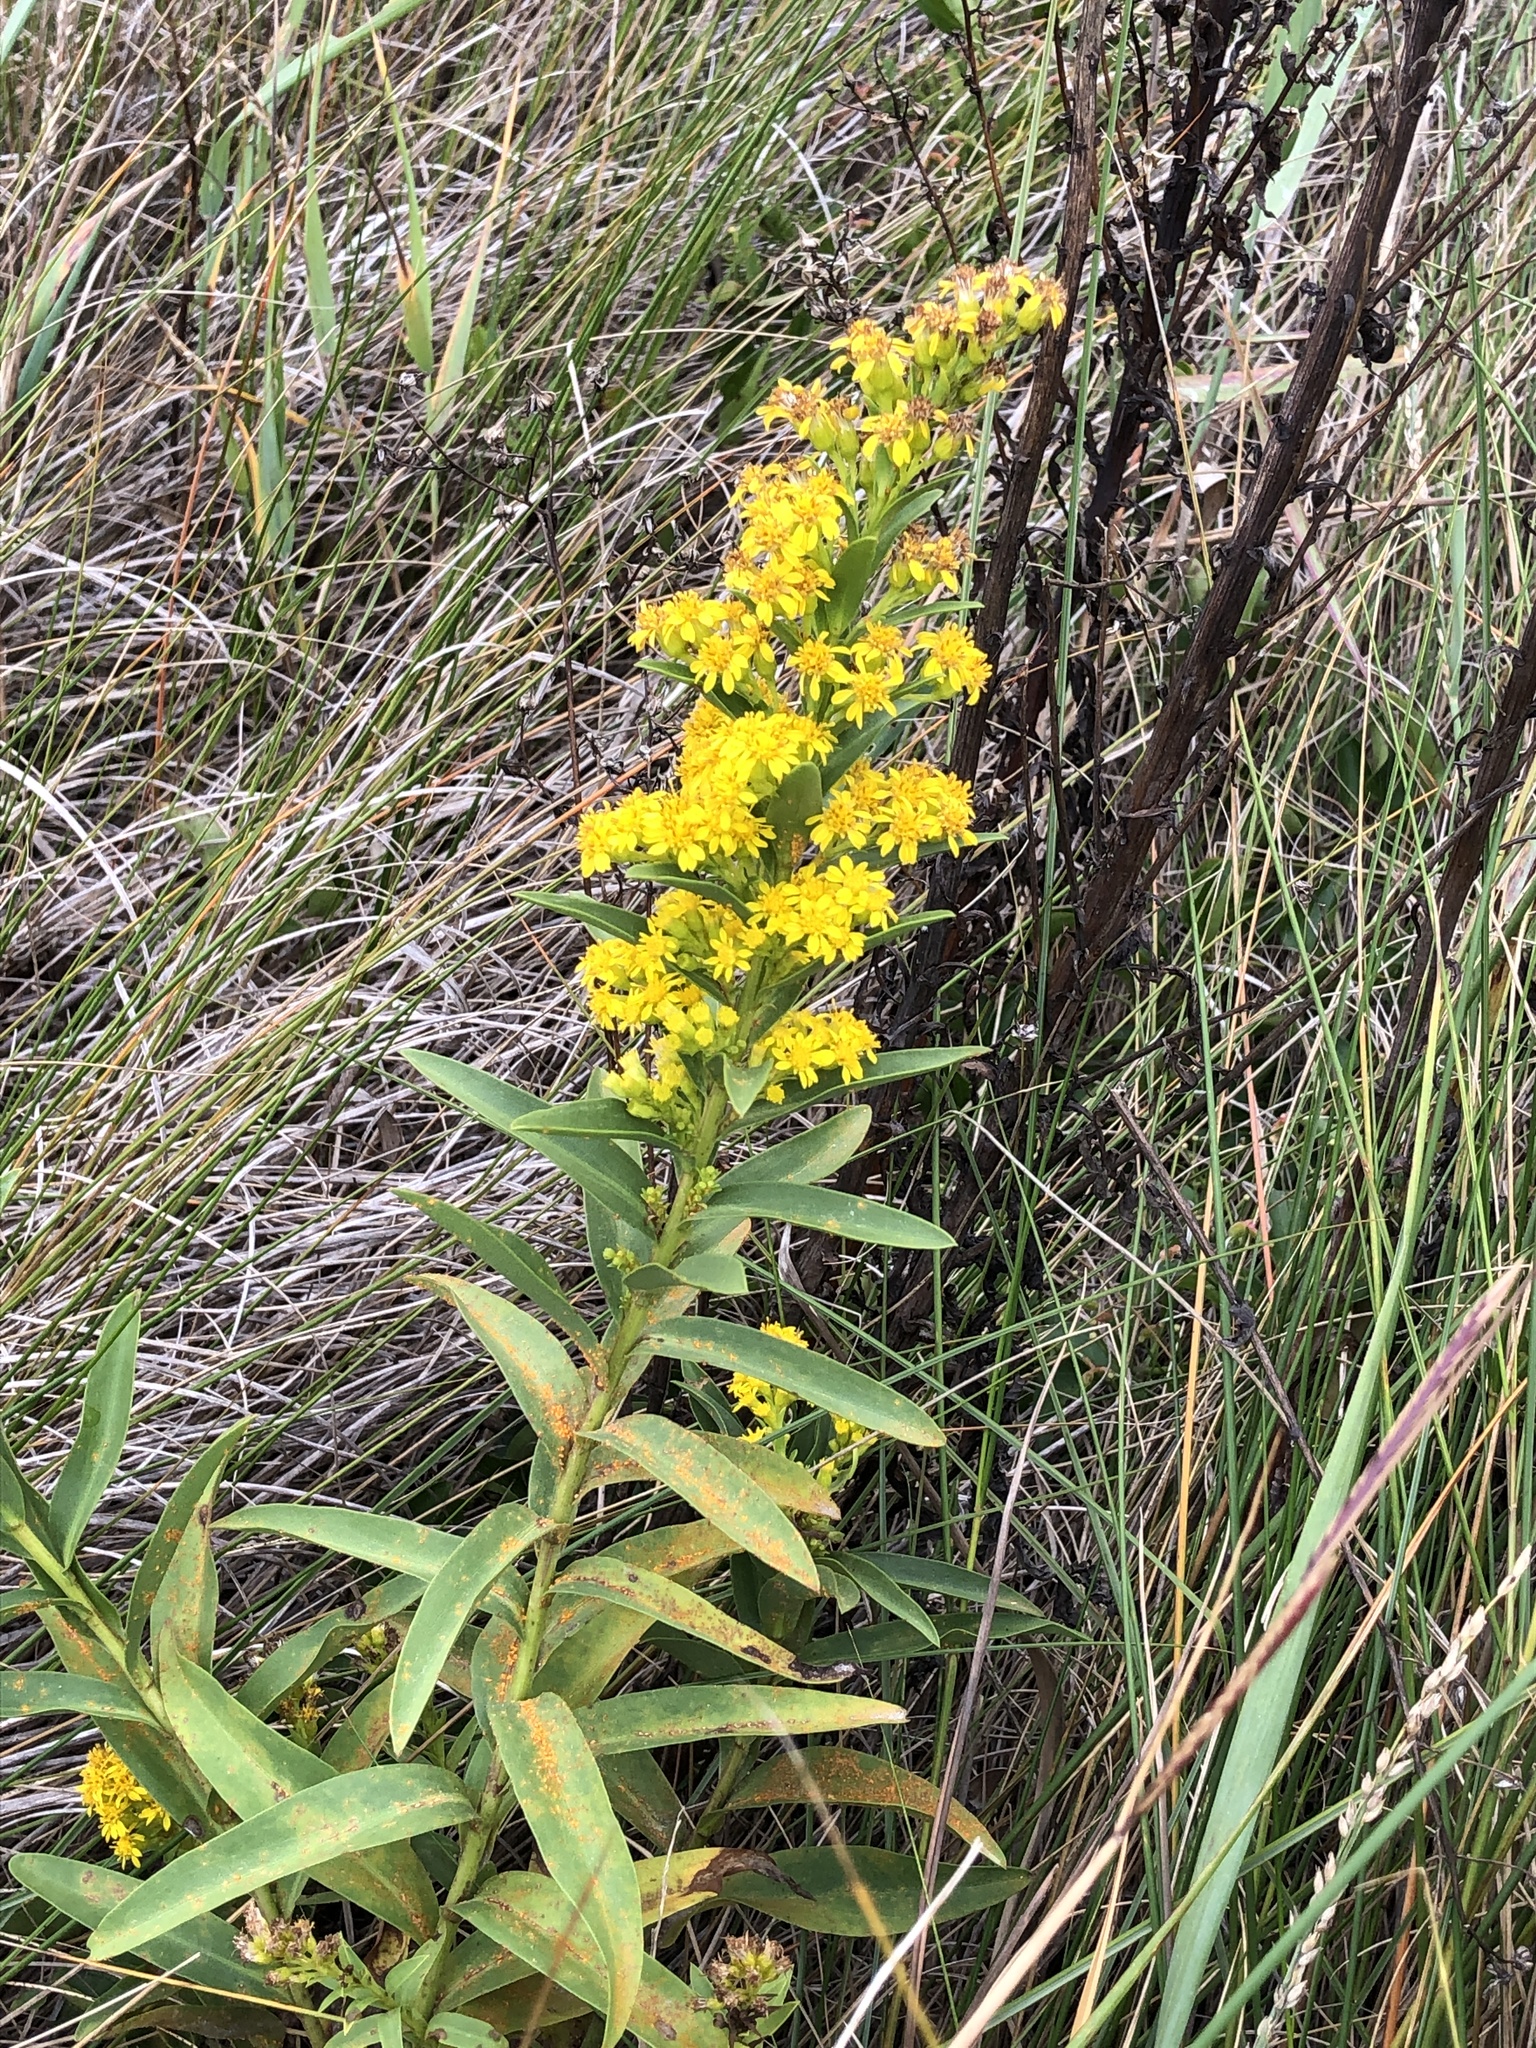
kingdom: Plantae
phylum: Tracheophyta
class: Magnoliopsida
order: Asterales
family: Asteraceae
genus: Solidago
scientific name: Solidago sempervirens
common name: Salt-marsh goldenrod
